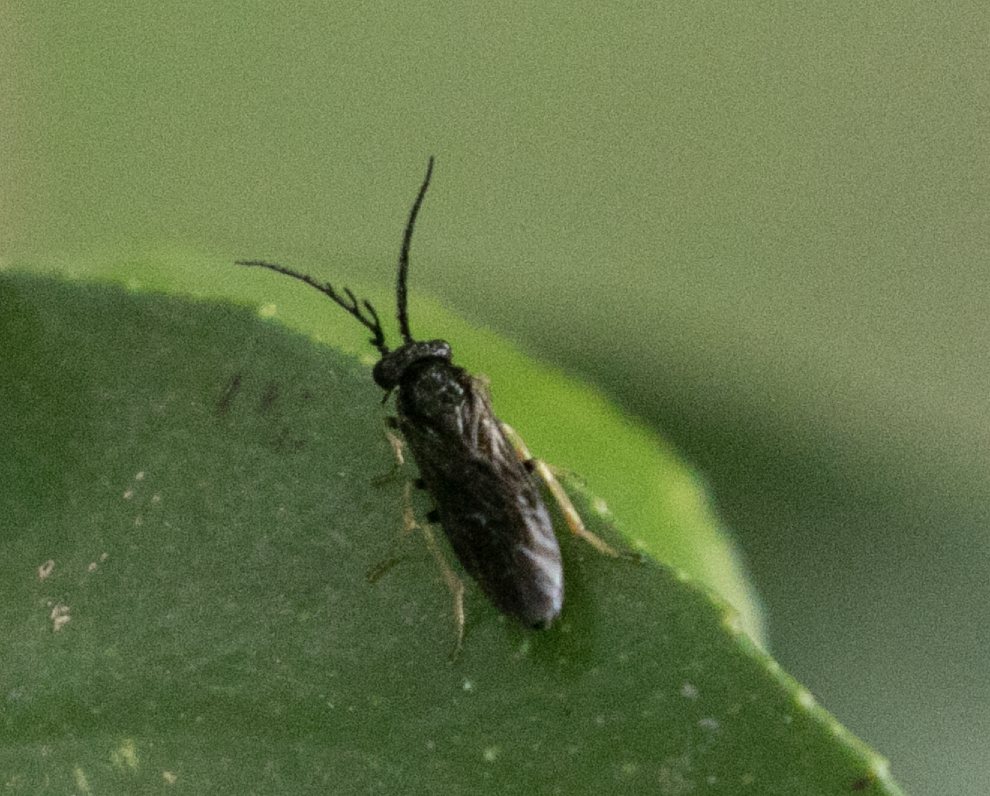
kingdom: Animalia
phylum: Arthropoda
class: Insecta
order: Hymenoptera
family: Tenthredinidae
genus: Cladius
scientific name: Cladius pectinicornis
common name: Sawfly
